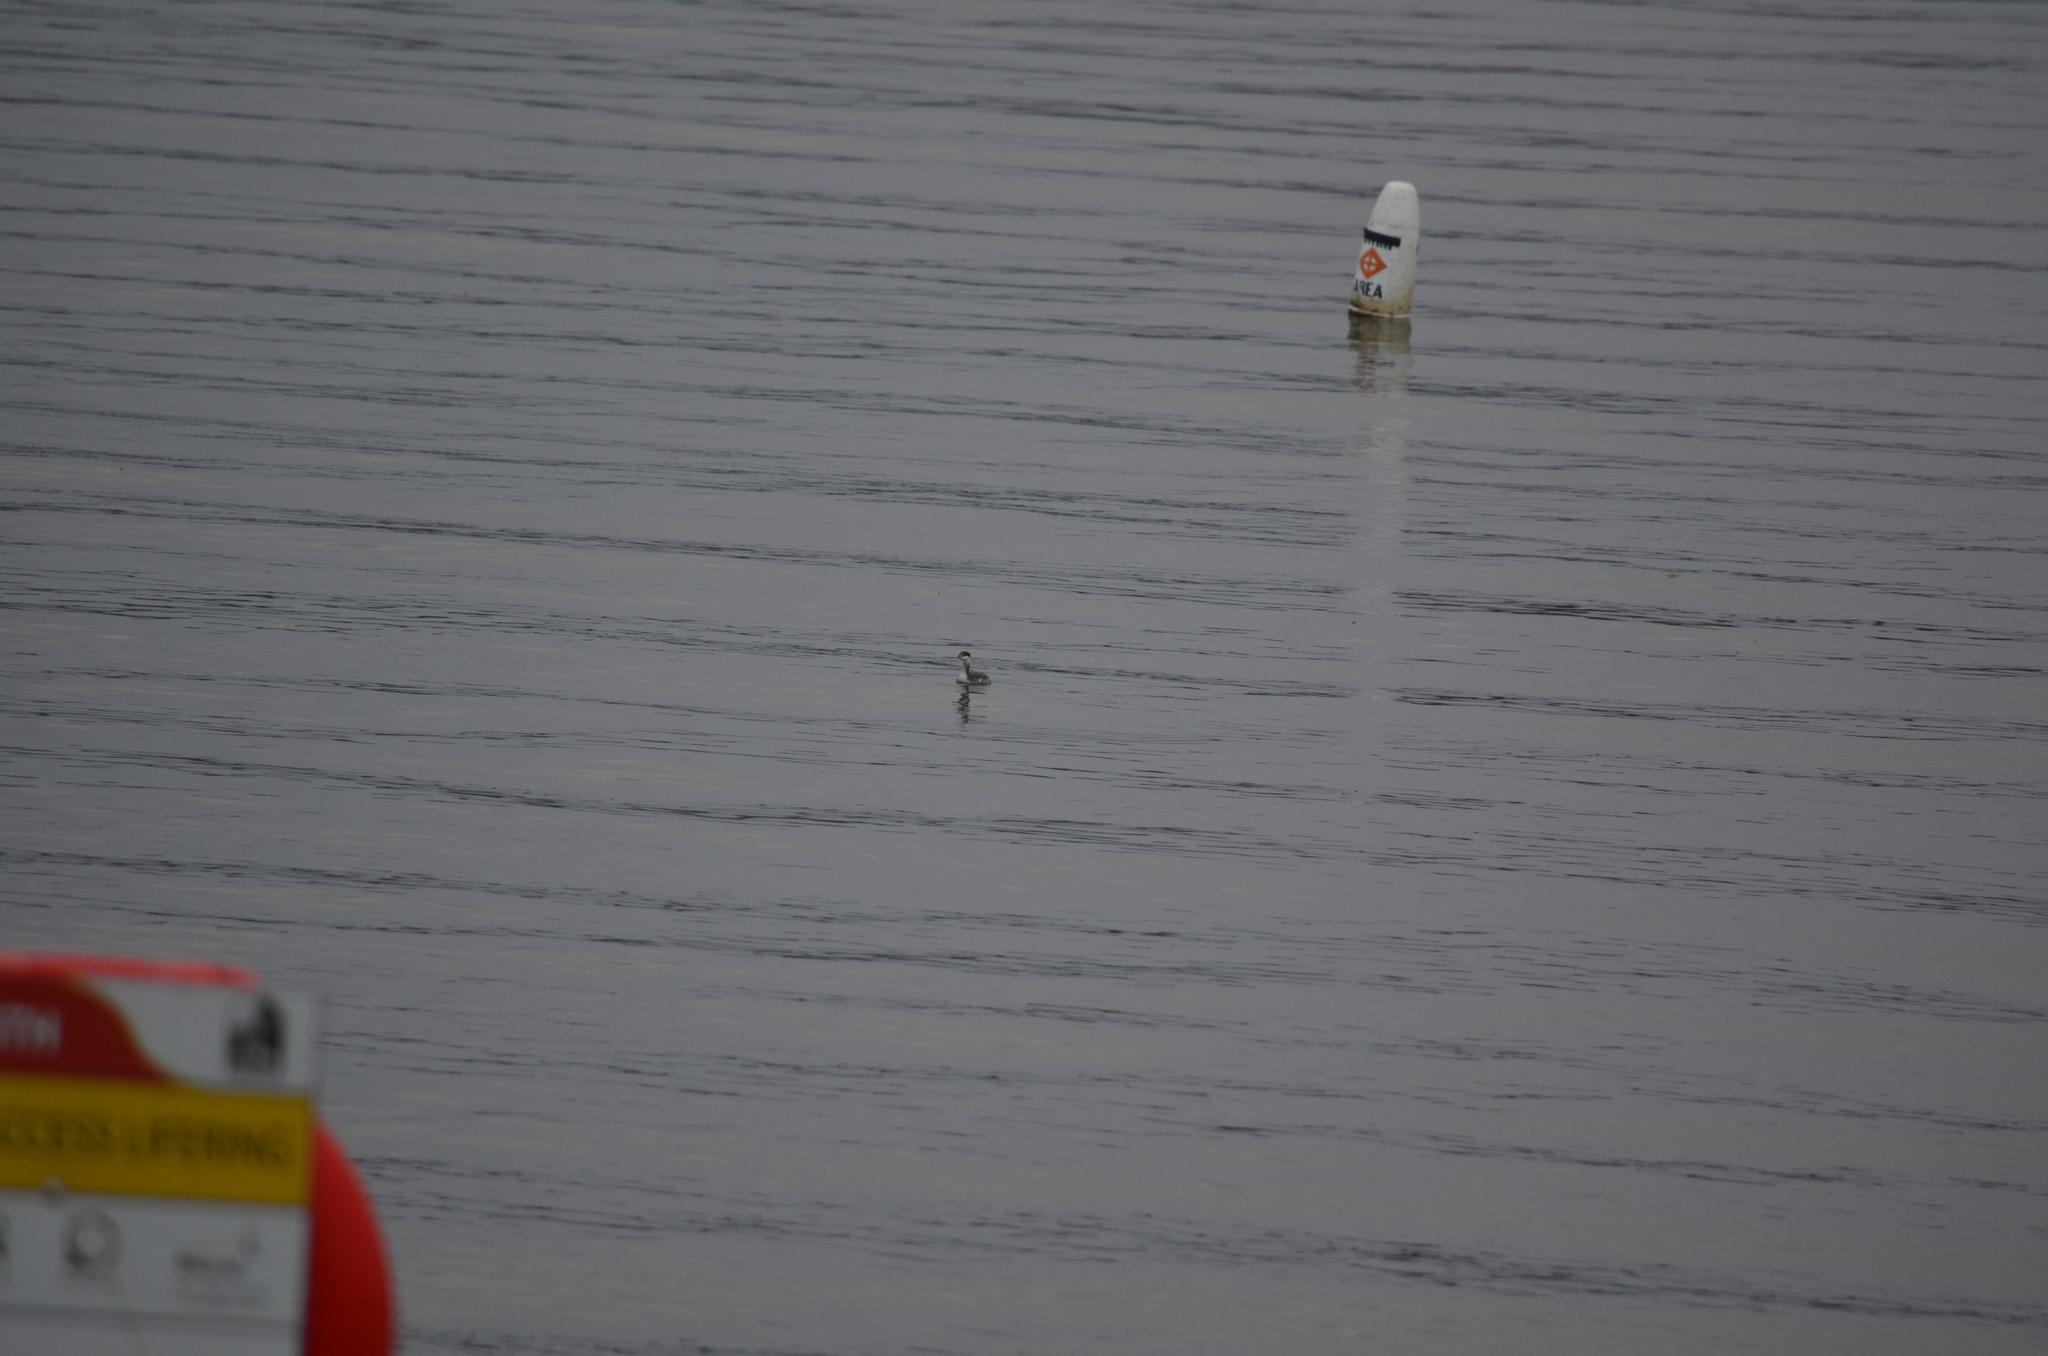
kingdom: Animalia
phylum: Chordata
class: Aves
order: Podicipediformes
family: Podicipedidae
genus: Podiceps
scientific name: Podiceps auritus
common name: Horned grebe
